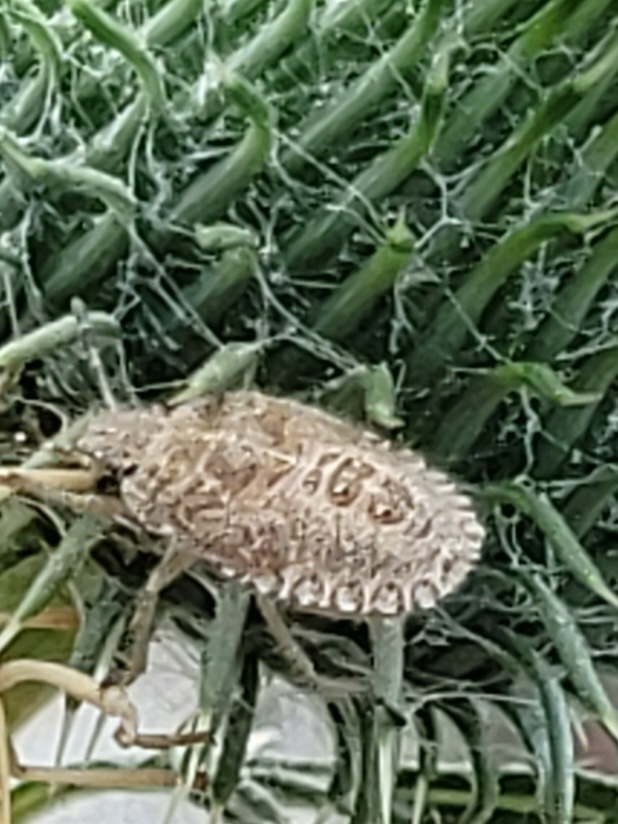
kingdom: Animalia
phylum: Arthropoda
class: Insecta
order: Hemiptera
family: Pentatomidae
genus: Dolycoris
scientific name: Dolycoris baccarum
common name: Sloe bug
